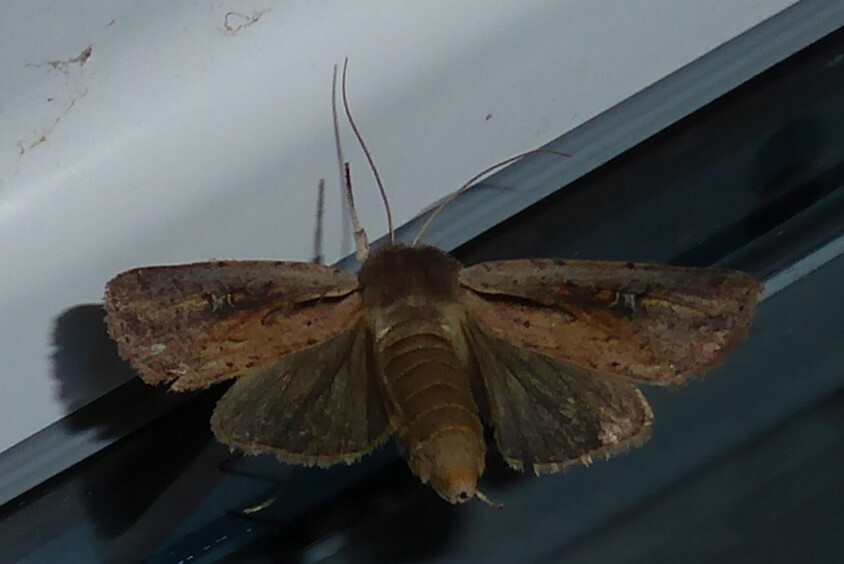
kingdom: Animalia
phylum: Arthropoda
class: Insecta
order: Lepidoptera
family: Noctuidae
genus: Ichneutica
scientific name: Ichneutica atristriga
